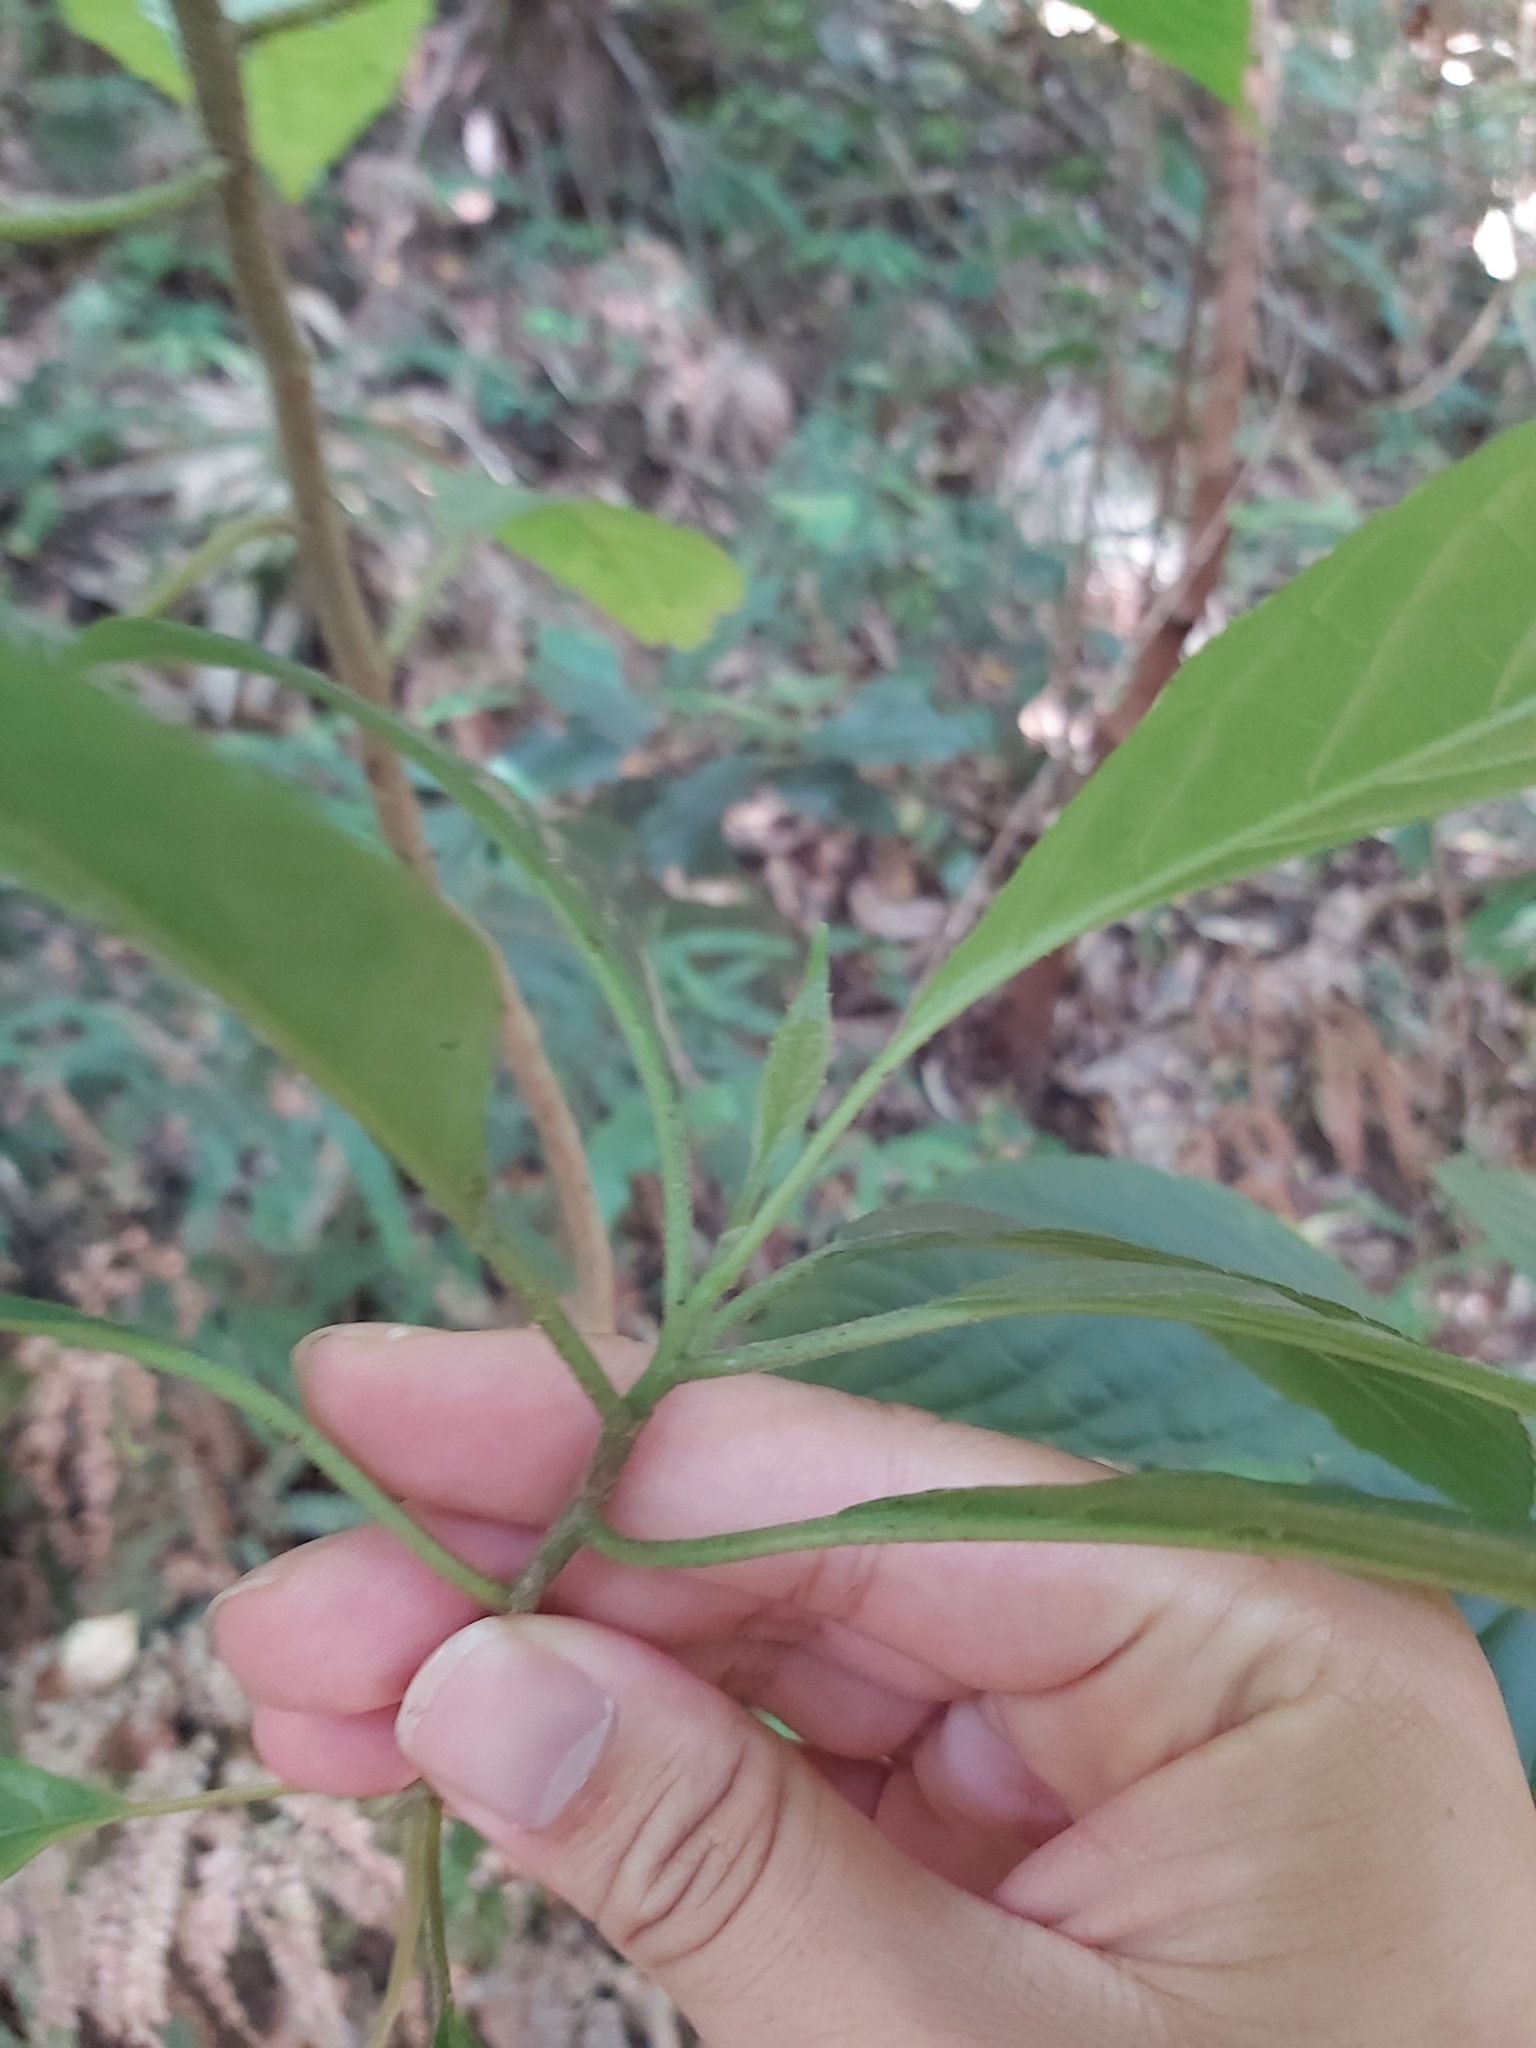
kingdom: Plantae
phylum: Tracheophyta
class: Magnoliopsida
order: Asterales
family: Rousseaceae
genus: Abrophyllum
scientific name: Abrophyllum ornans
